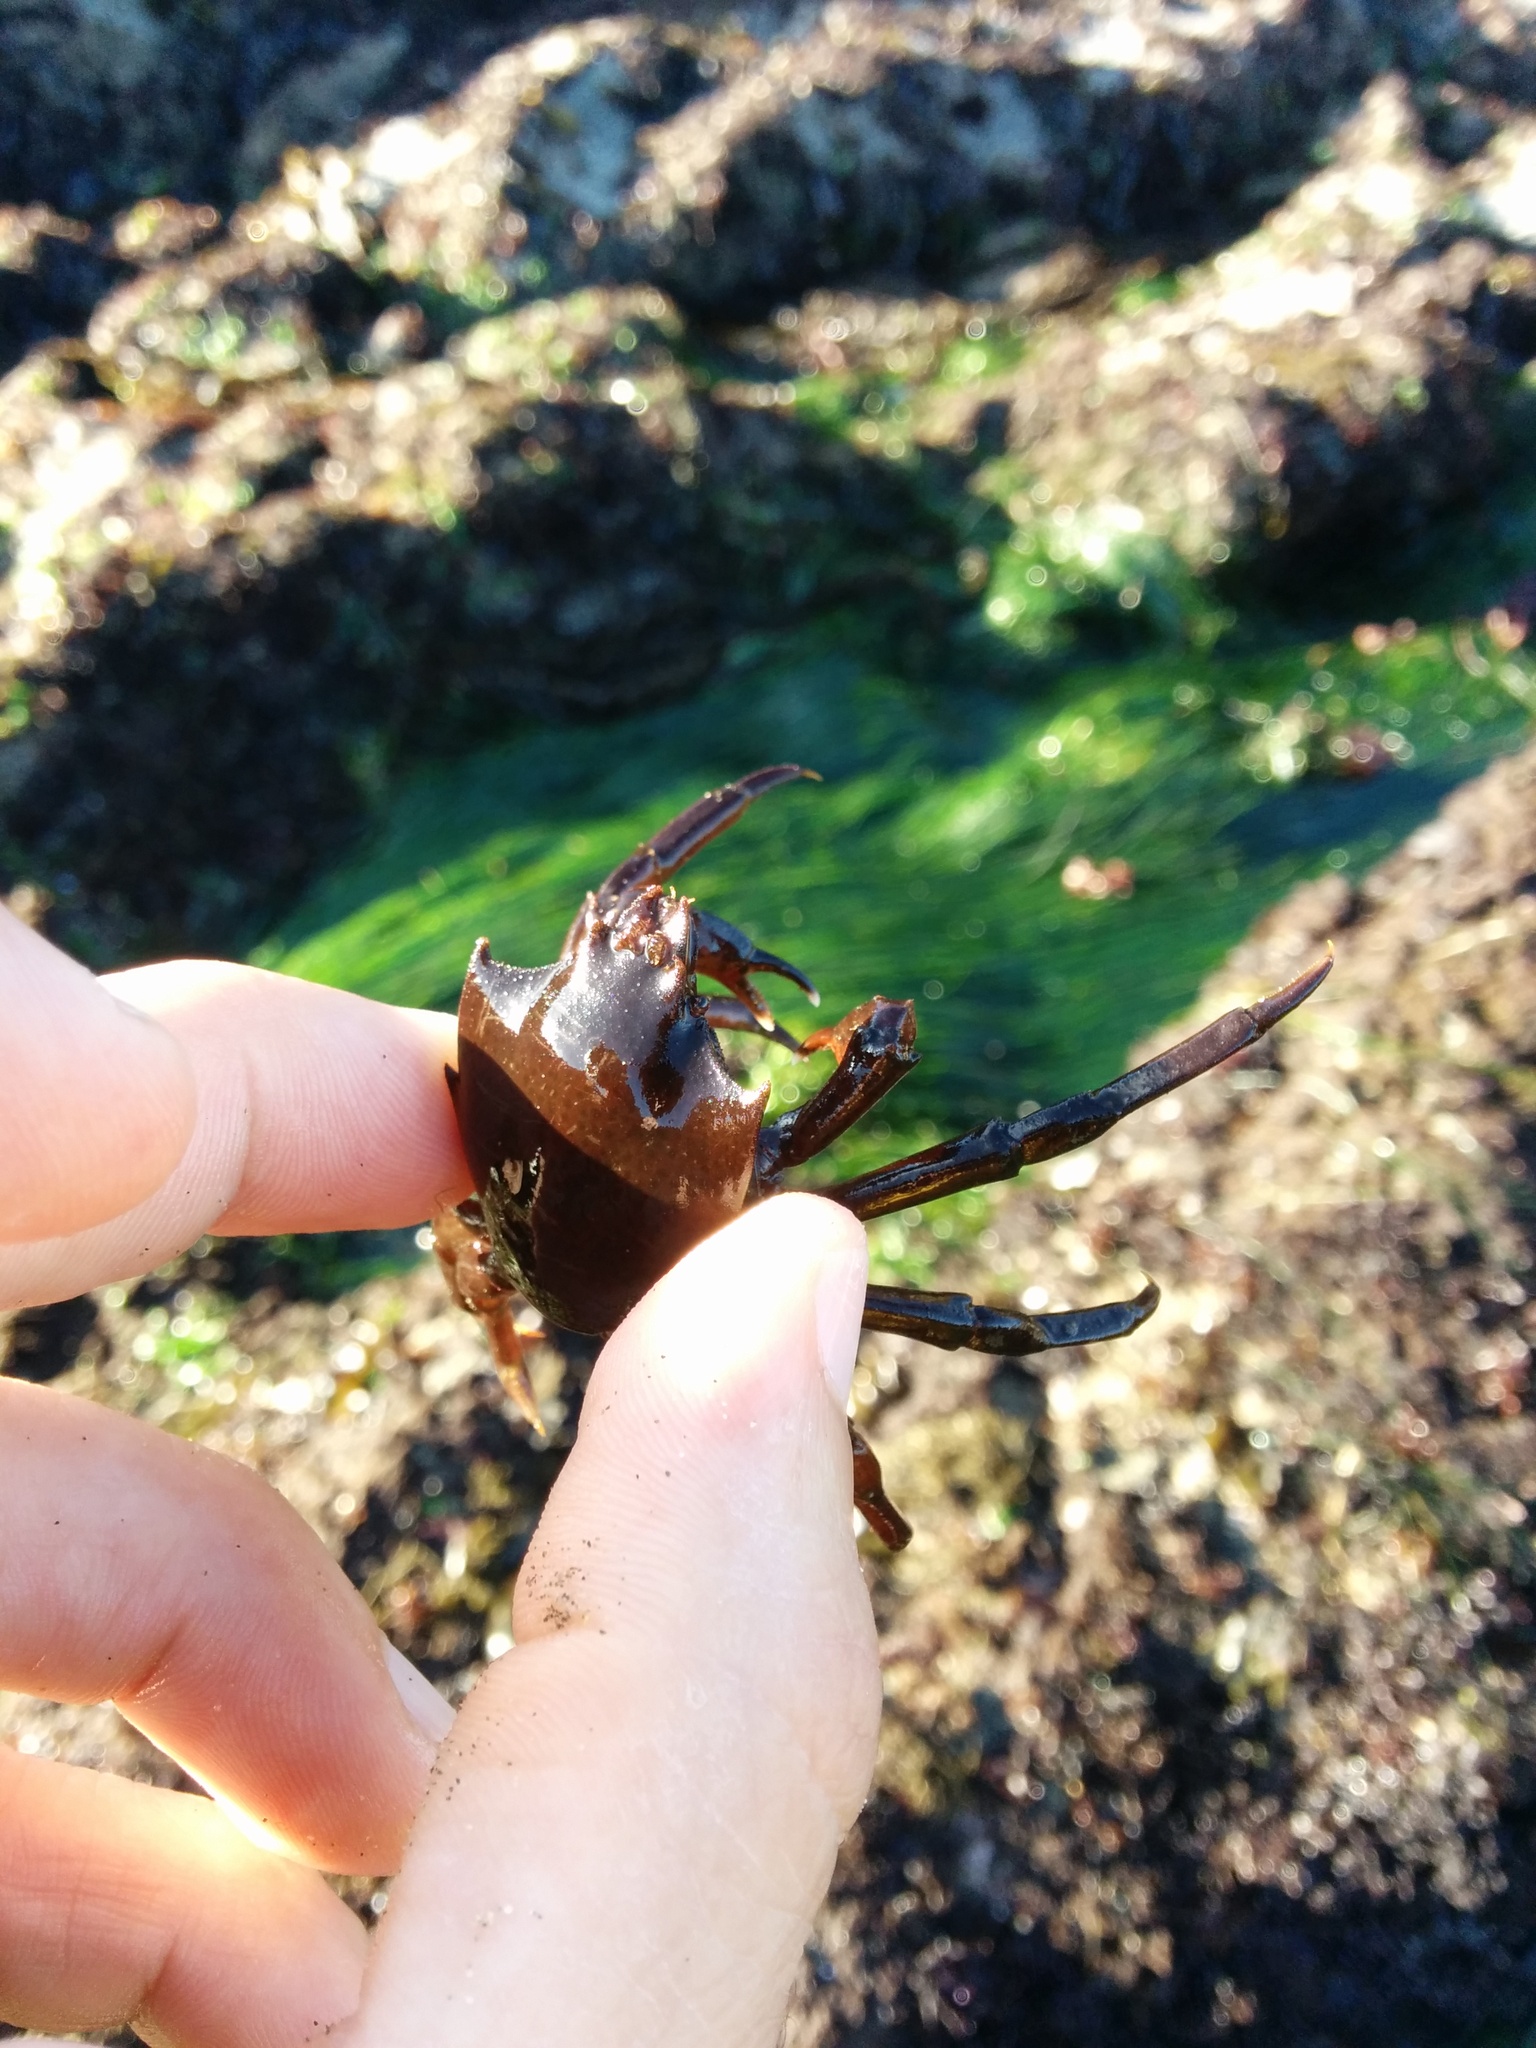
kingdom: Animalia
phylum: Arthropoda
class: Malacostraca
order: Decapoda
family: Epialtidae
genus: Pugettia
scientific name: Pugettia producta
